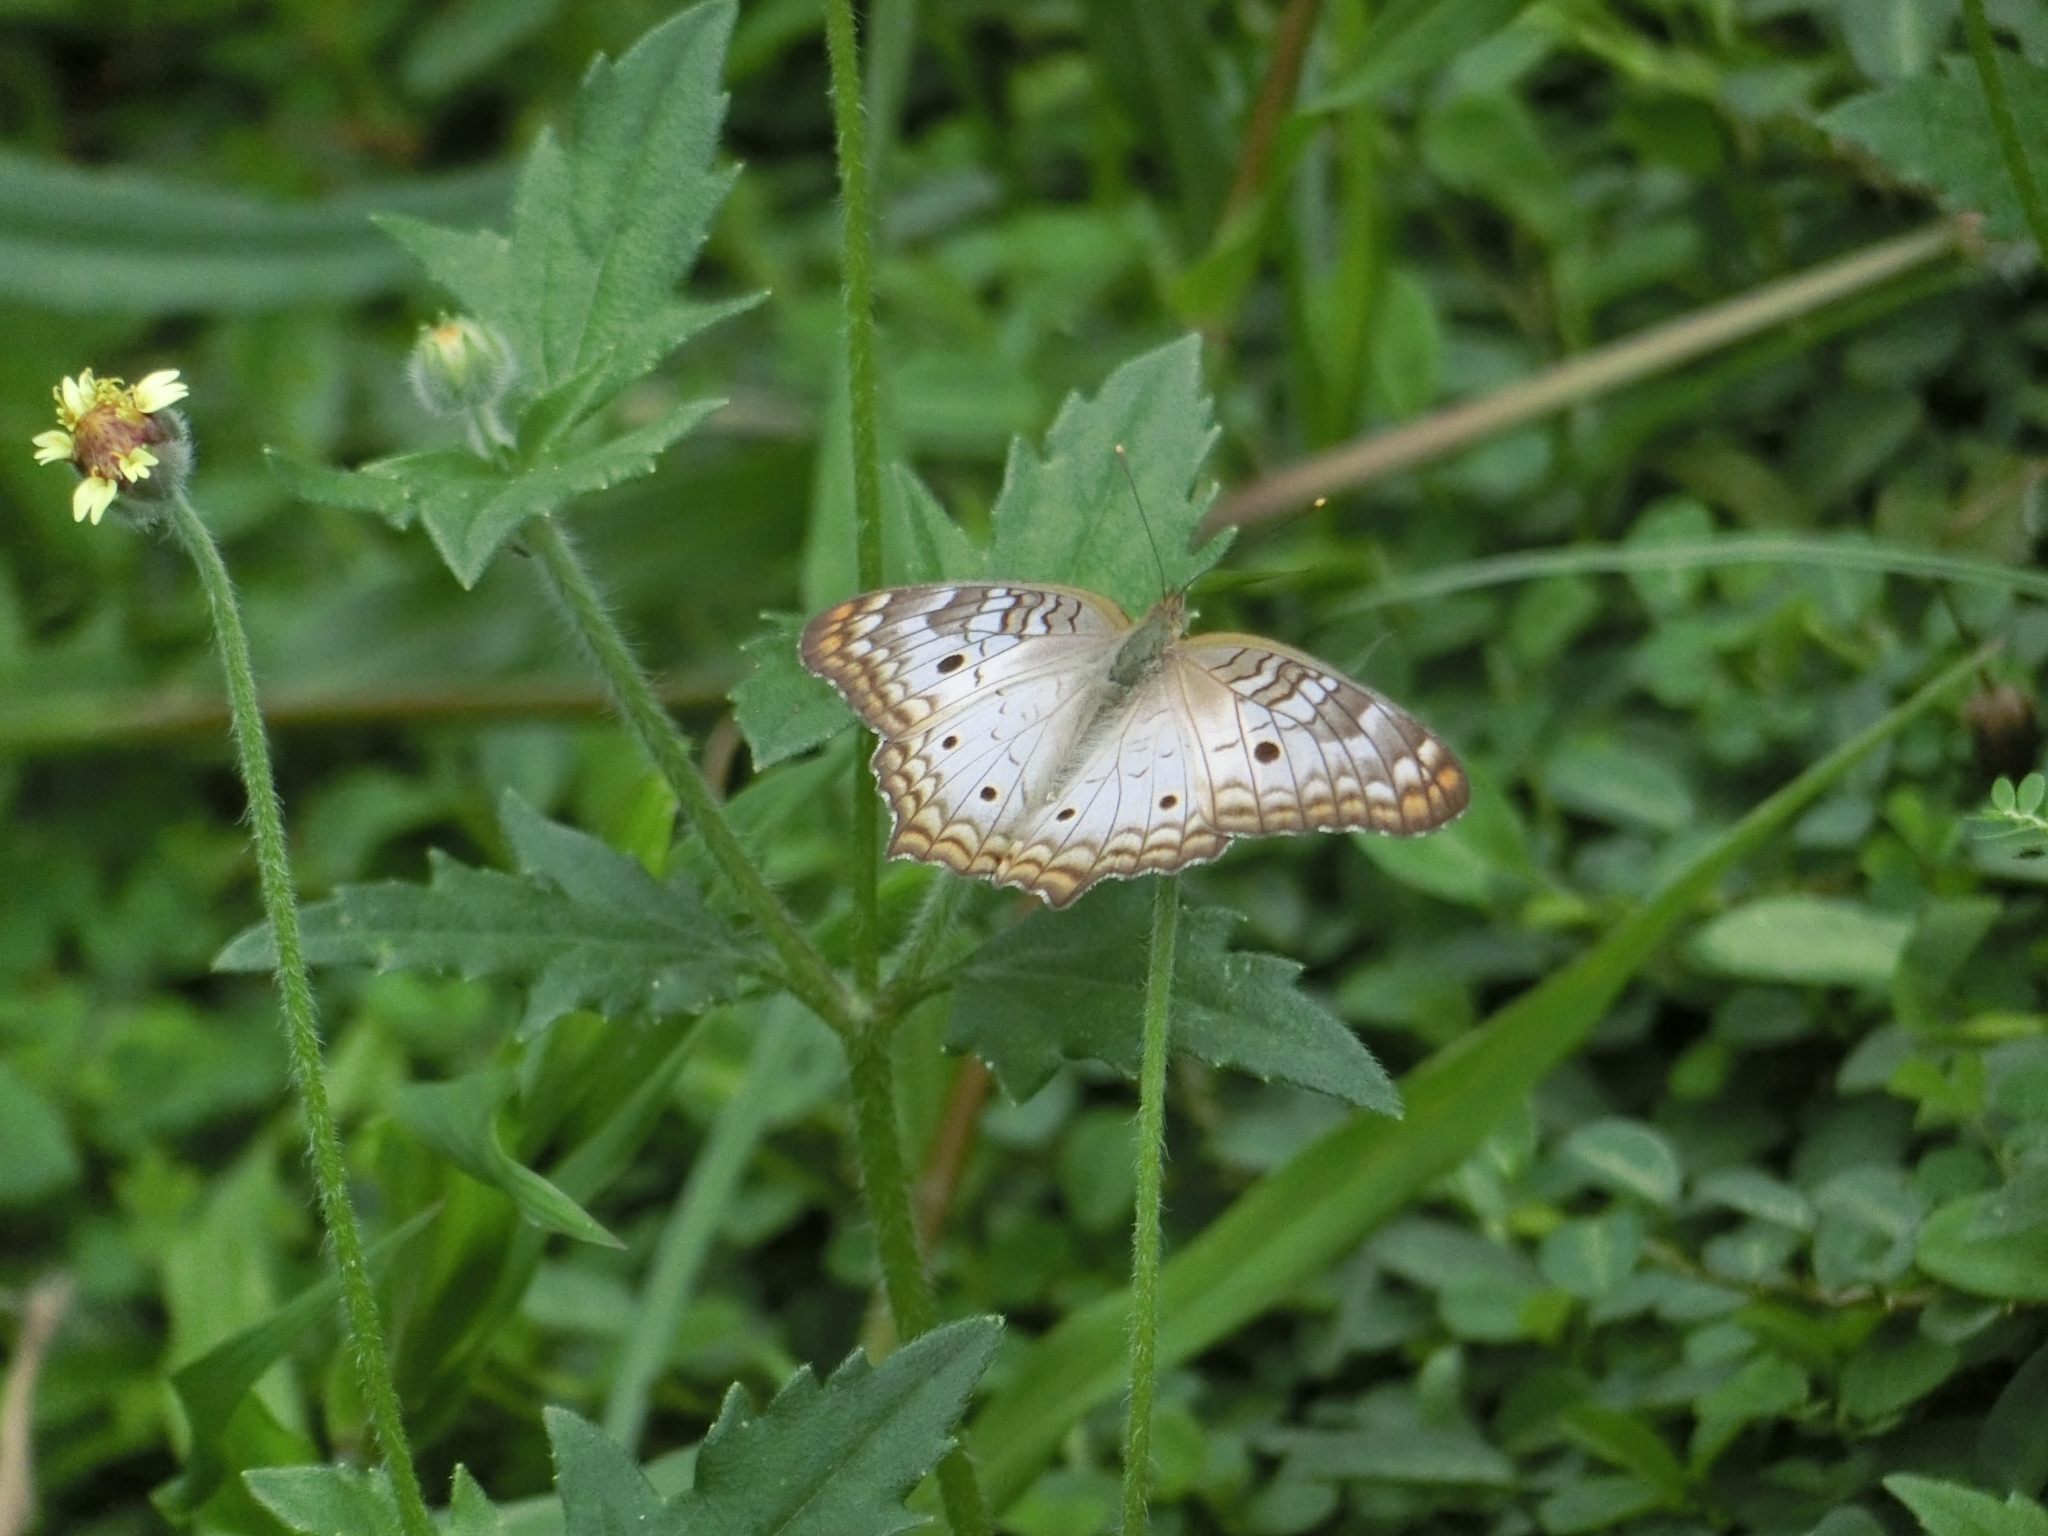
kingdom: Animalia
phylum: Arthropoda
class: Insecta
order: Lepidoptera
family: Nymphalidae
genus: Anartia
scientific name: Anartia jatrophae
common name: White peacock
